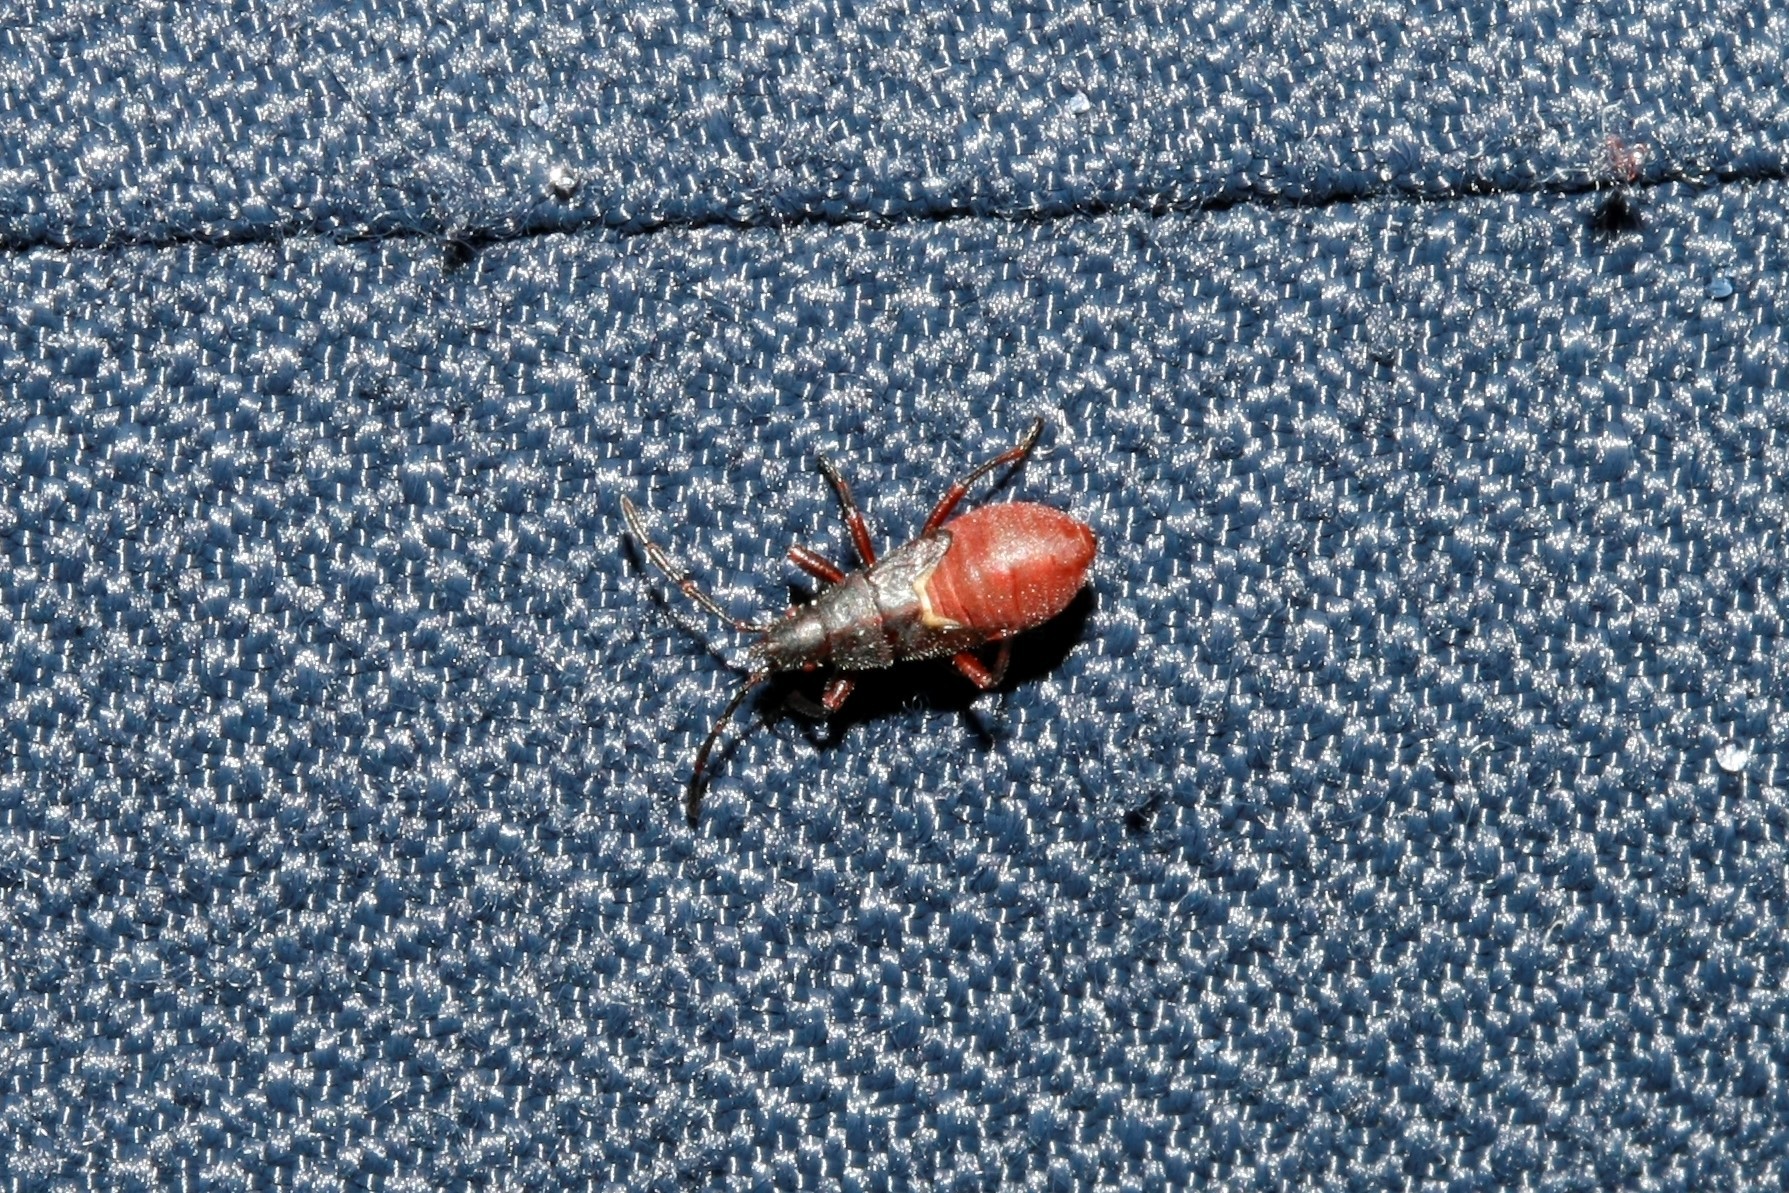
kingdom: Animalia
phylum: Arthropoda
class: Insecta
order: Hemiptera
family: Oxycarenidae
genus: Oxycarenus
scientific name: Oxycarenus lavaterae
